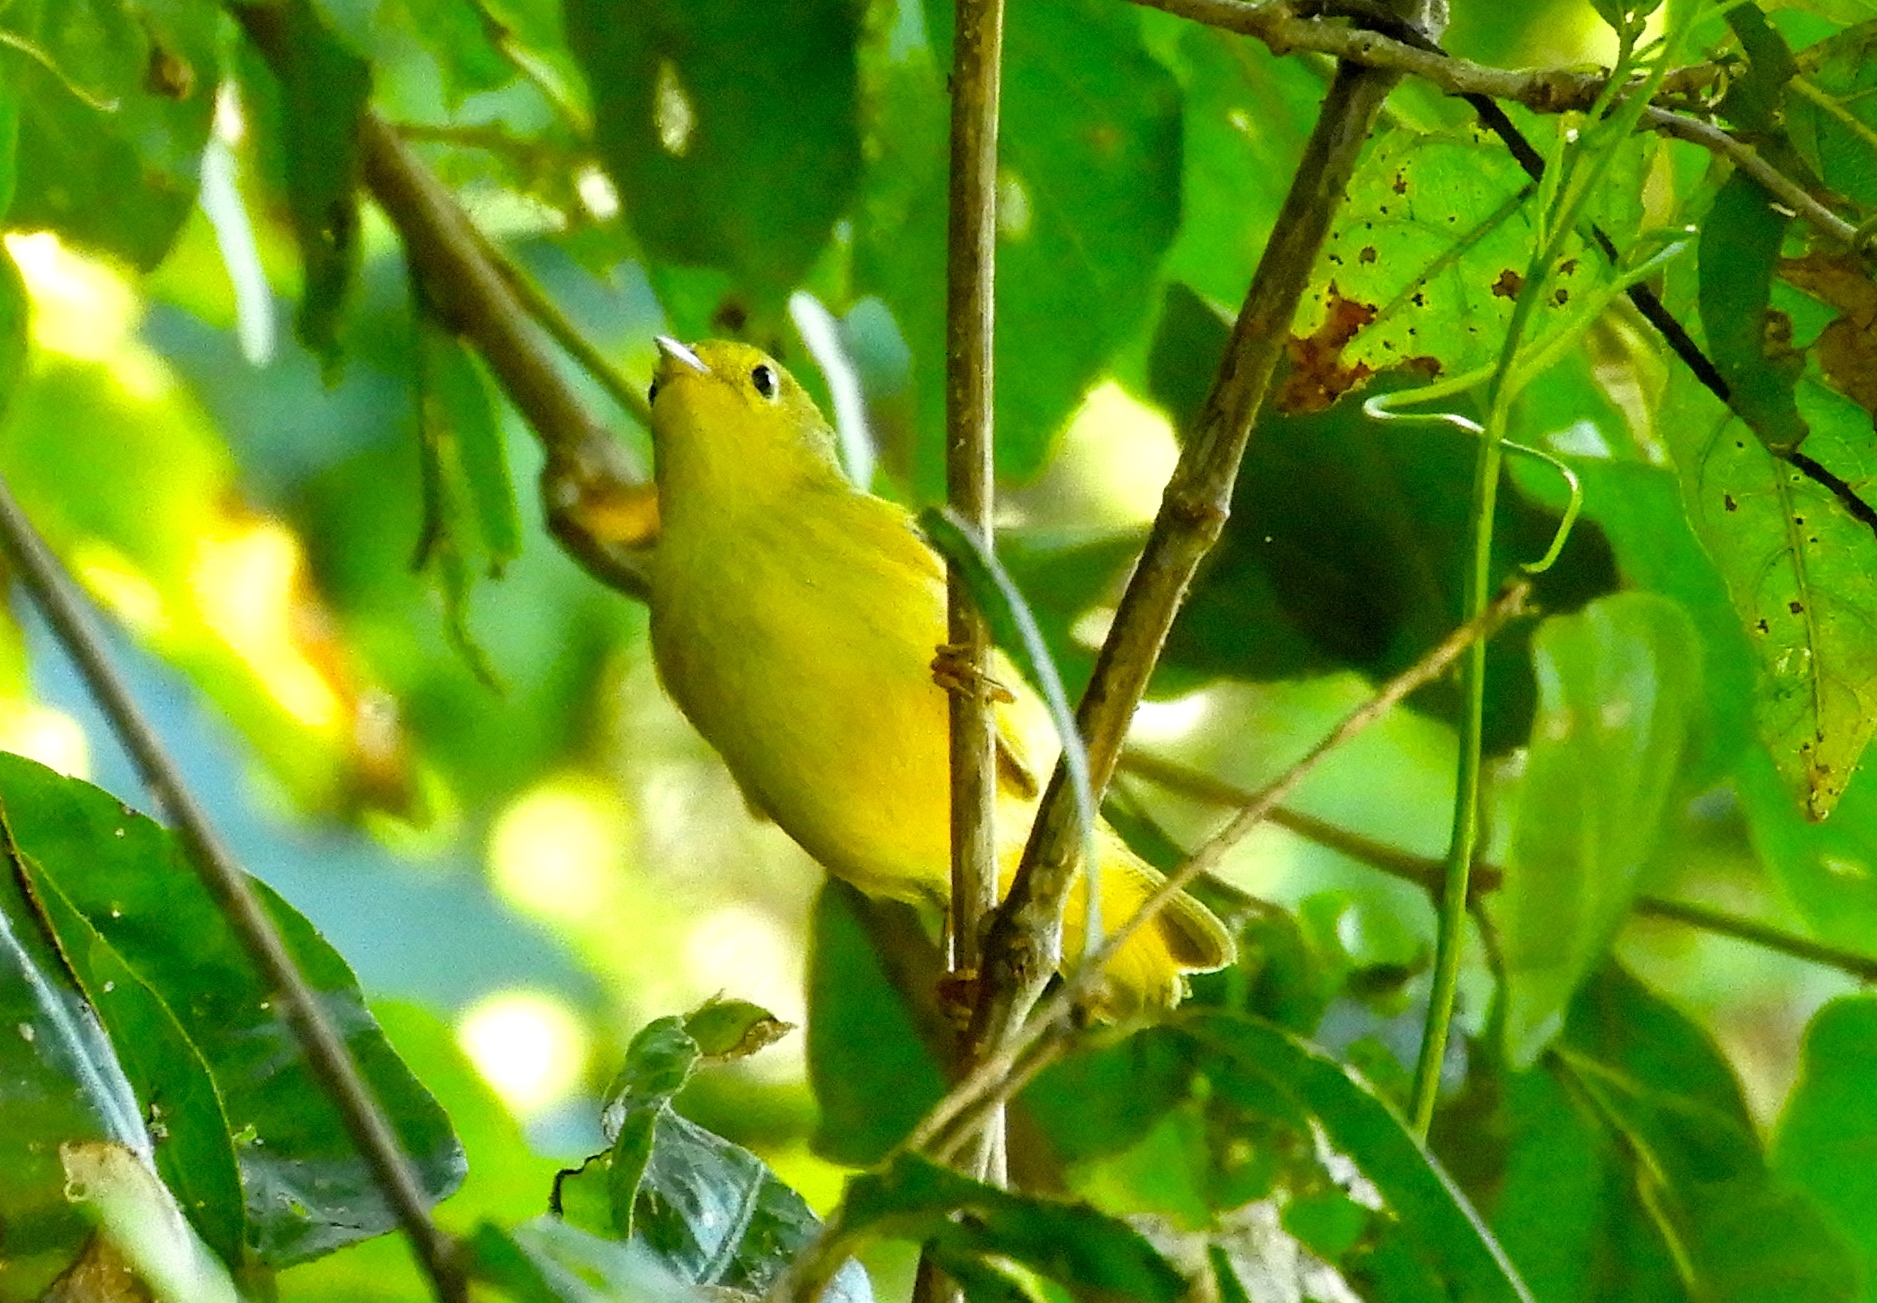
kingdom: Animalia
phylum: Chordata
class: Aves
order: Passeriformes
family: Parulidae
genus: Setophaga
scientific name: Setophaga petechia
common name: Yellow warbler
